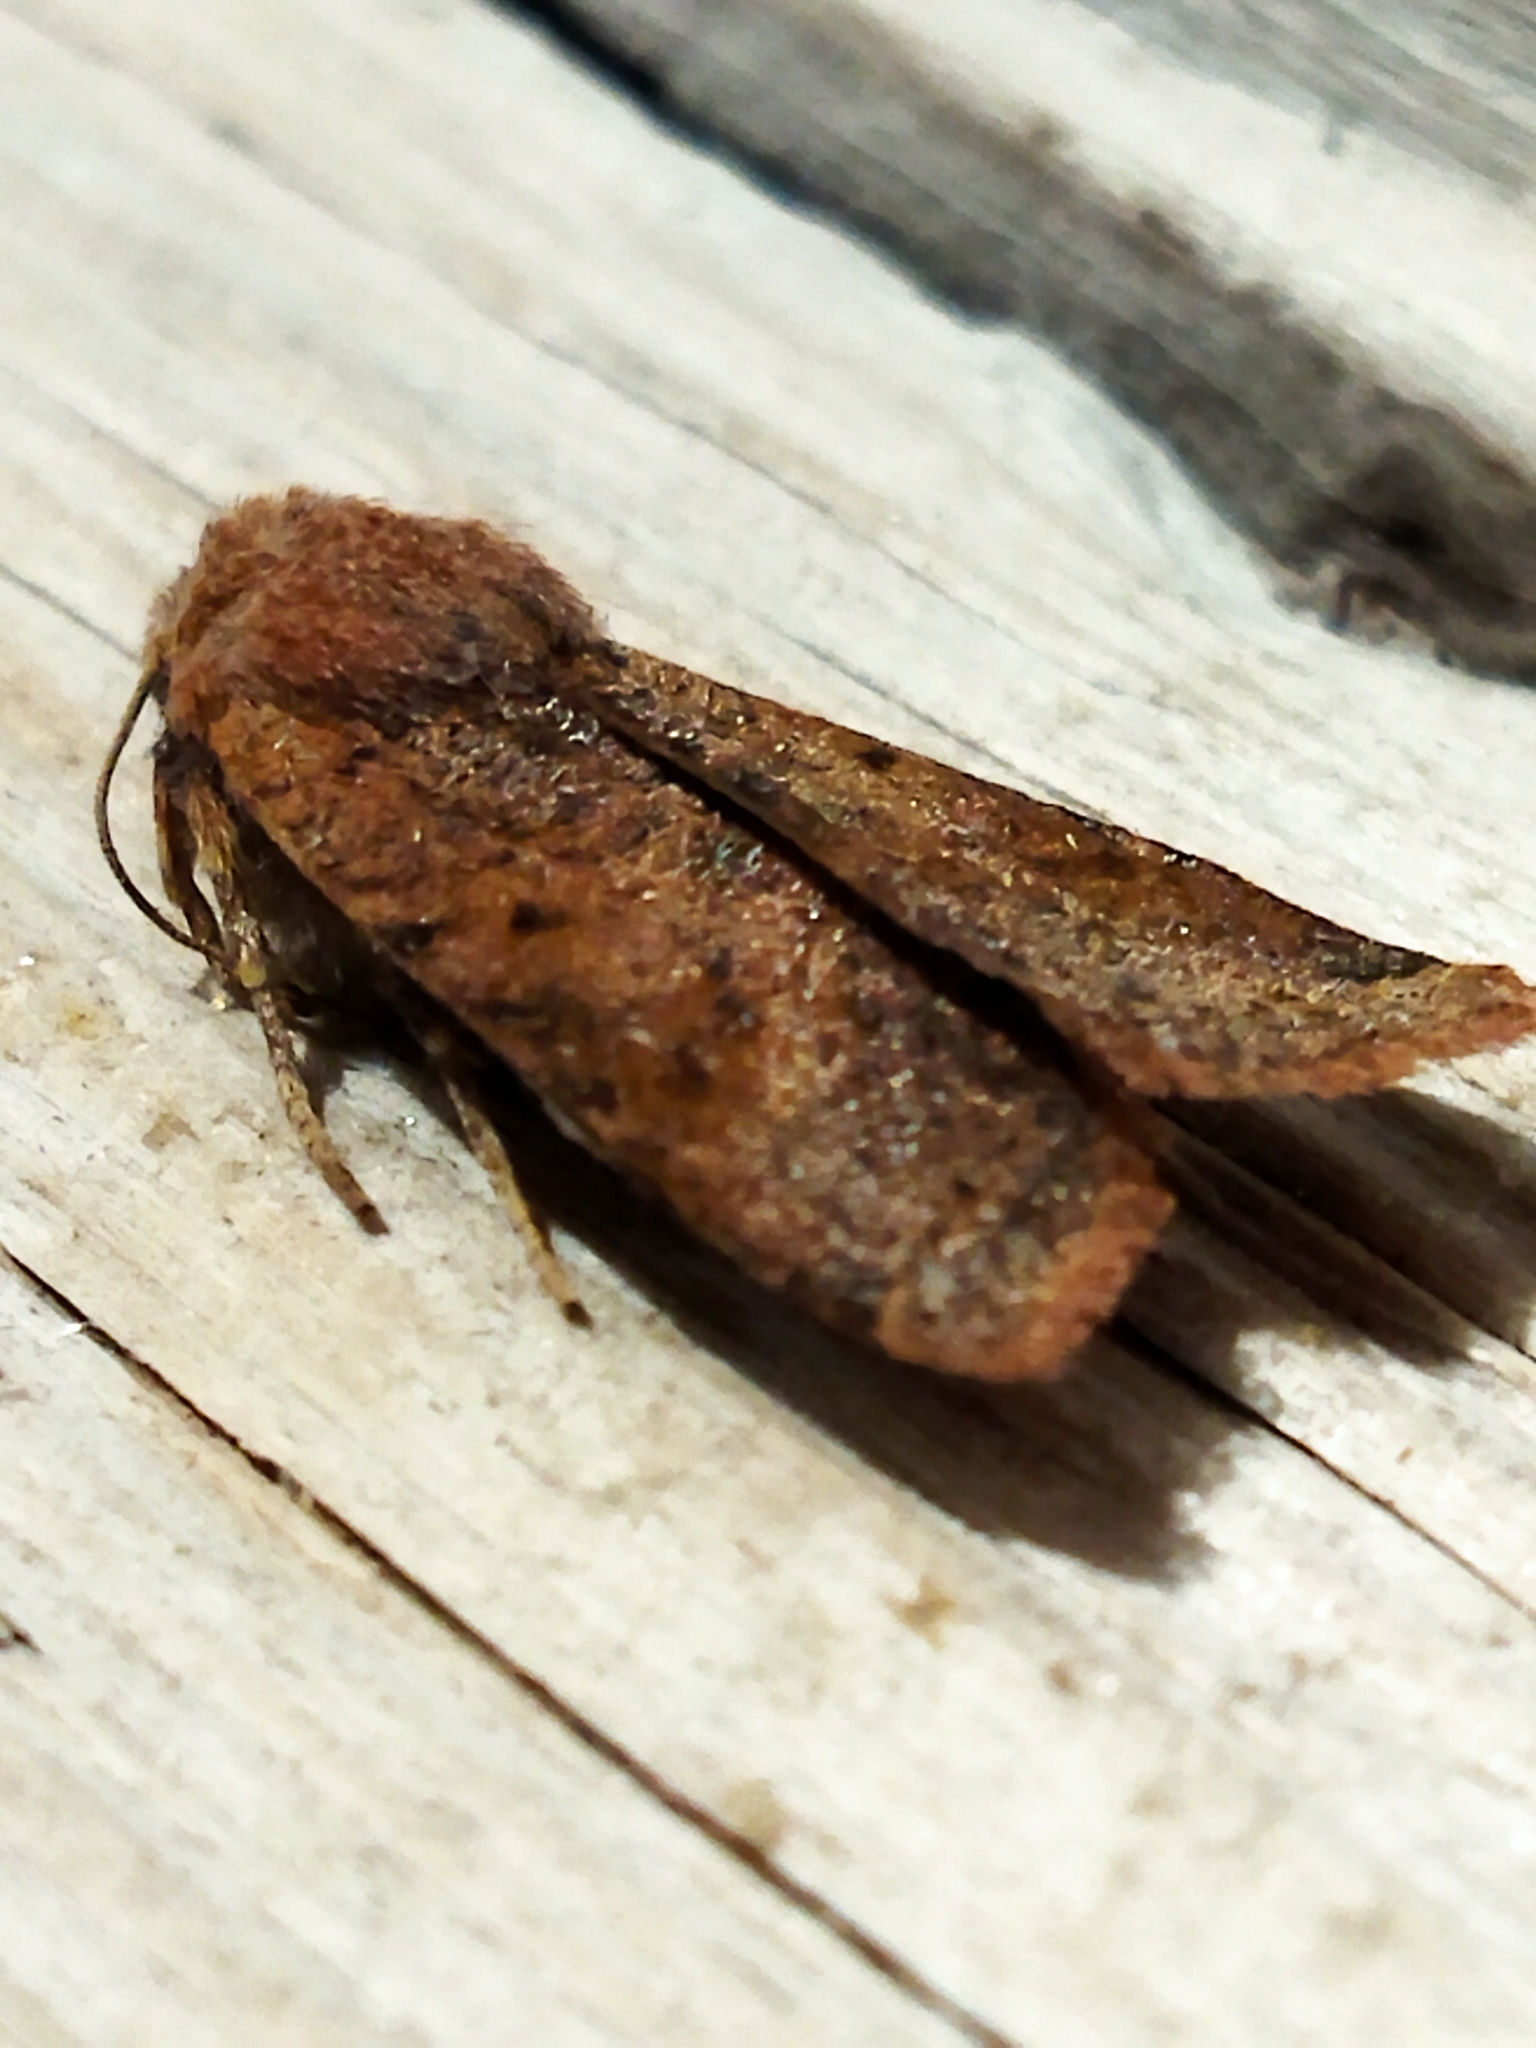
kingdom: Animalia
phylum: Arthropoda
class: Insecta
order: Lepidoptera
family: Noctuidae
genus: Agrochola
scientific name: Agrochola lychnidis
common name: Beaded chestnut
